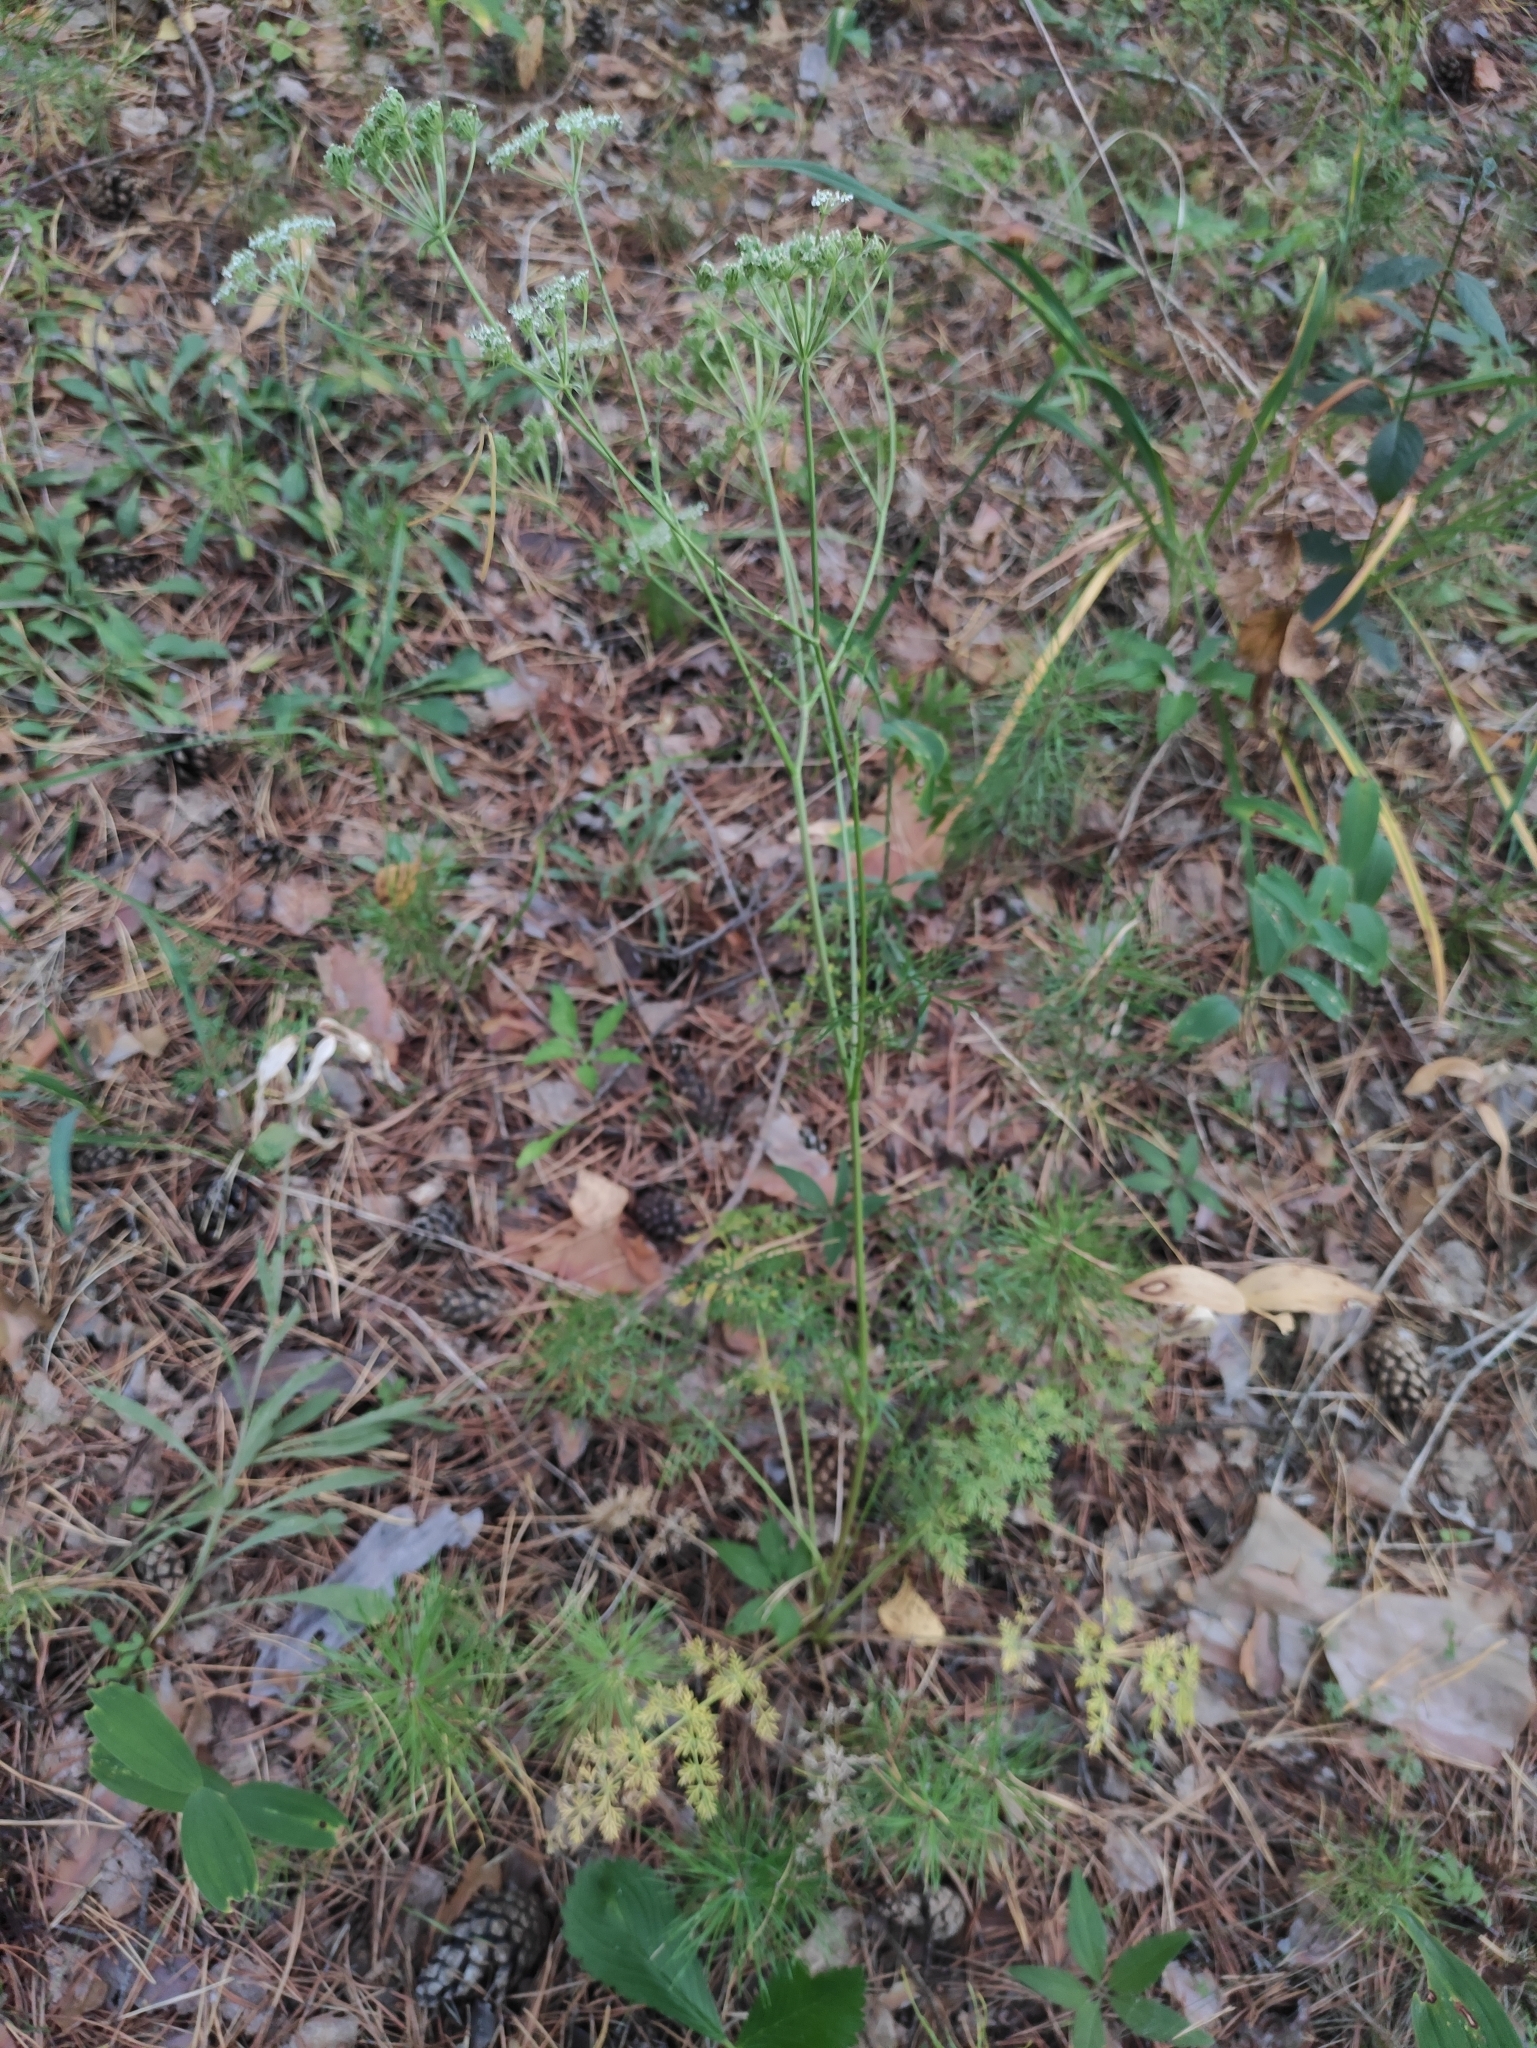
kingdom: Plantae
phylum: Tracheophyta
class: Magnoliopsida
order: Apiales
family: Apiaceae
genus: Kitagawia
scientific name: Kitagawia baicalensis
